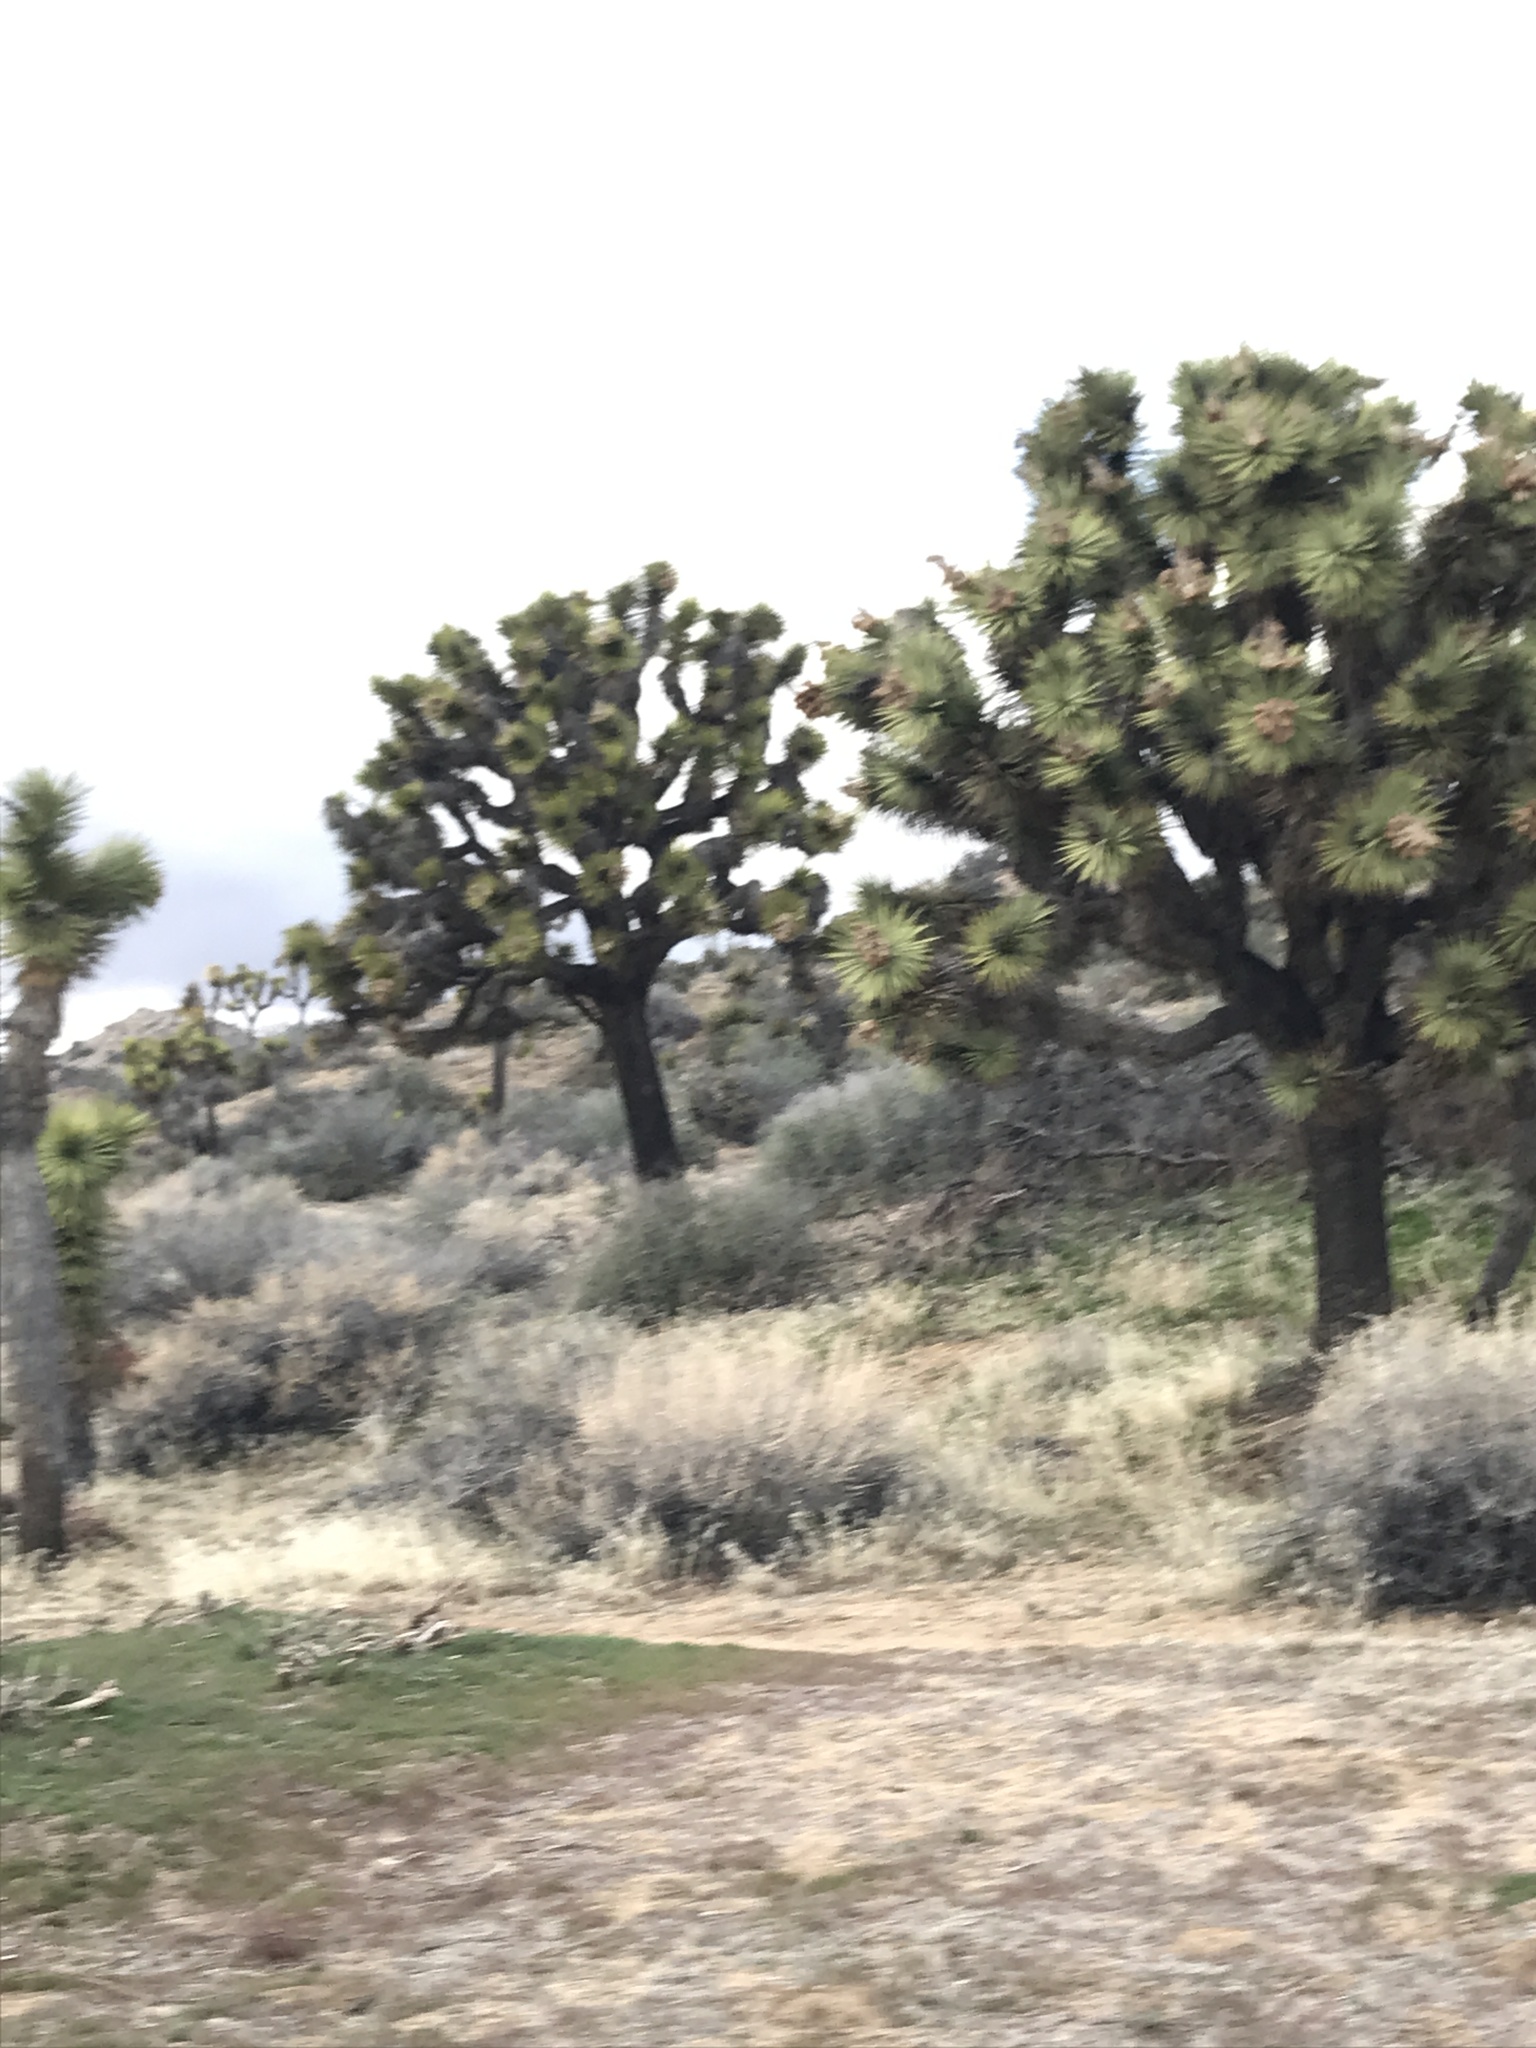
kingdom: Plantae
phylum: Tracheophyta
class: Liliopsida
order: Asparagales
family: Asparagaceae
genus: Yucca
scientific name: Yucca brevifolia
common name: Joshua tree
